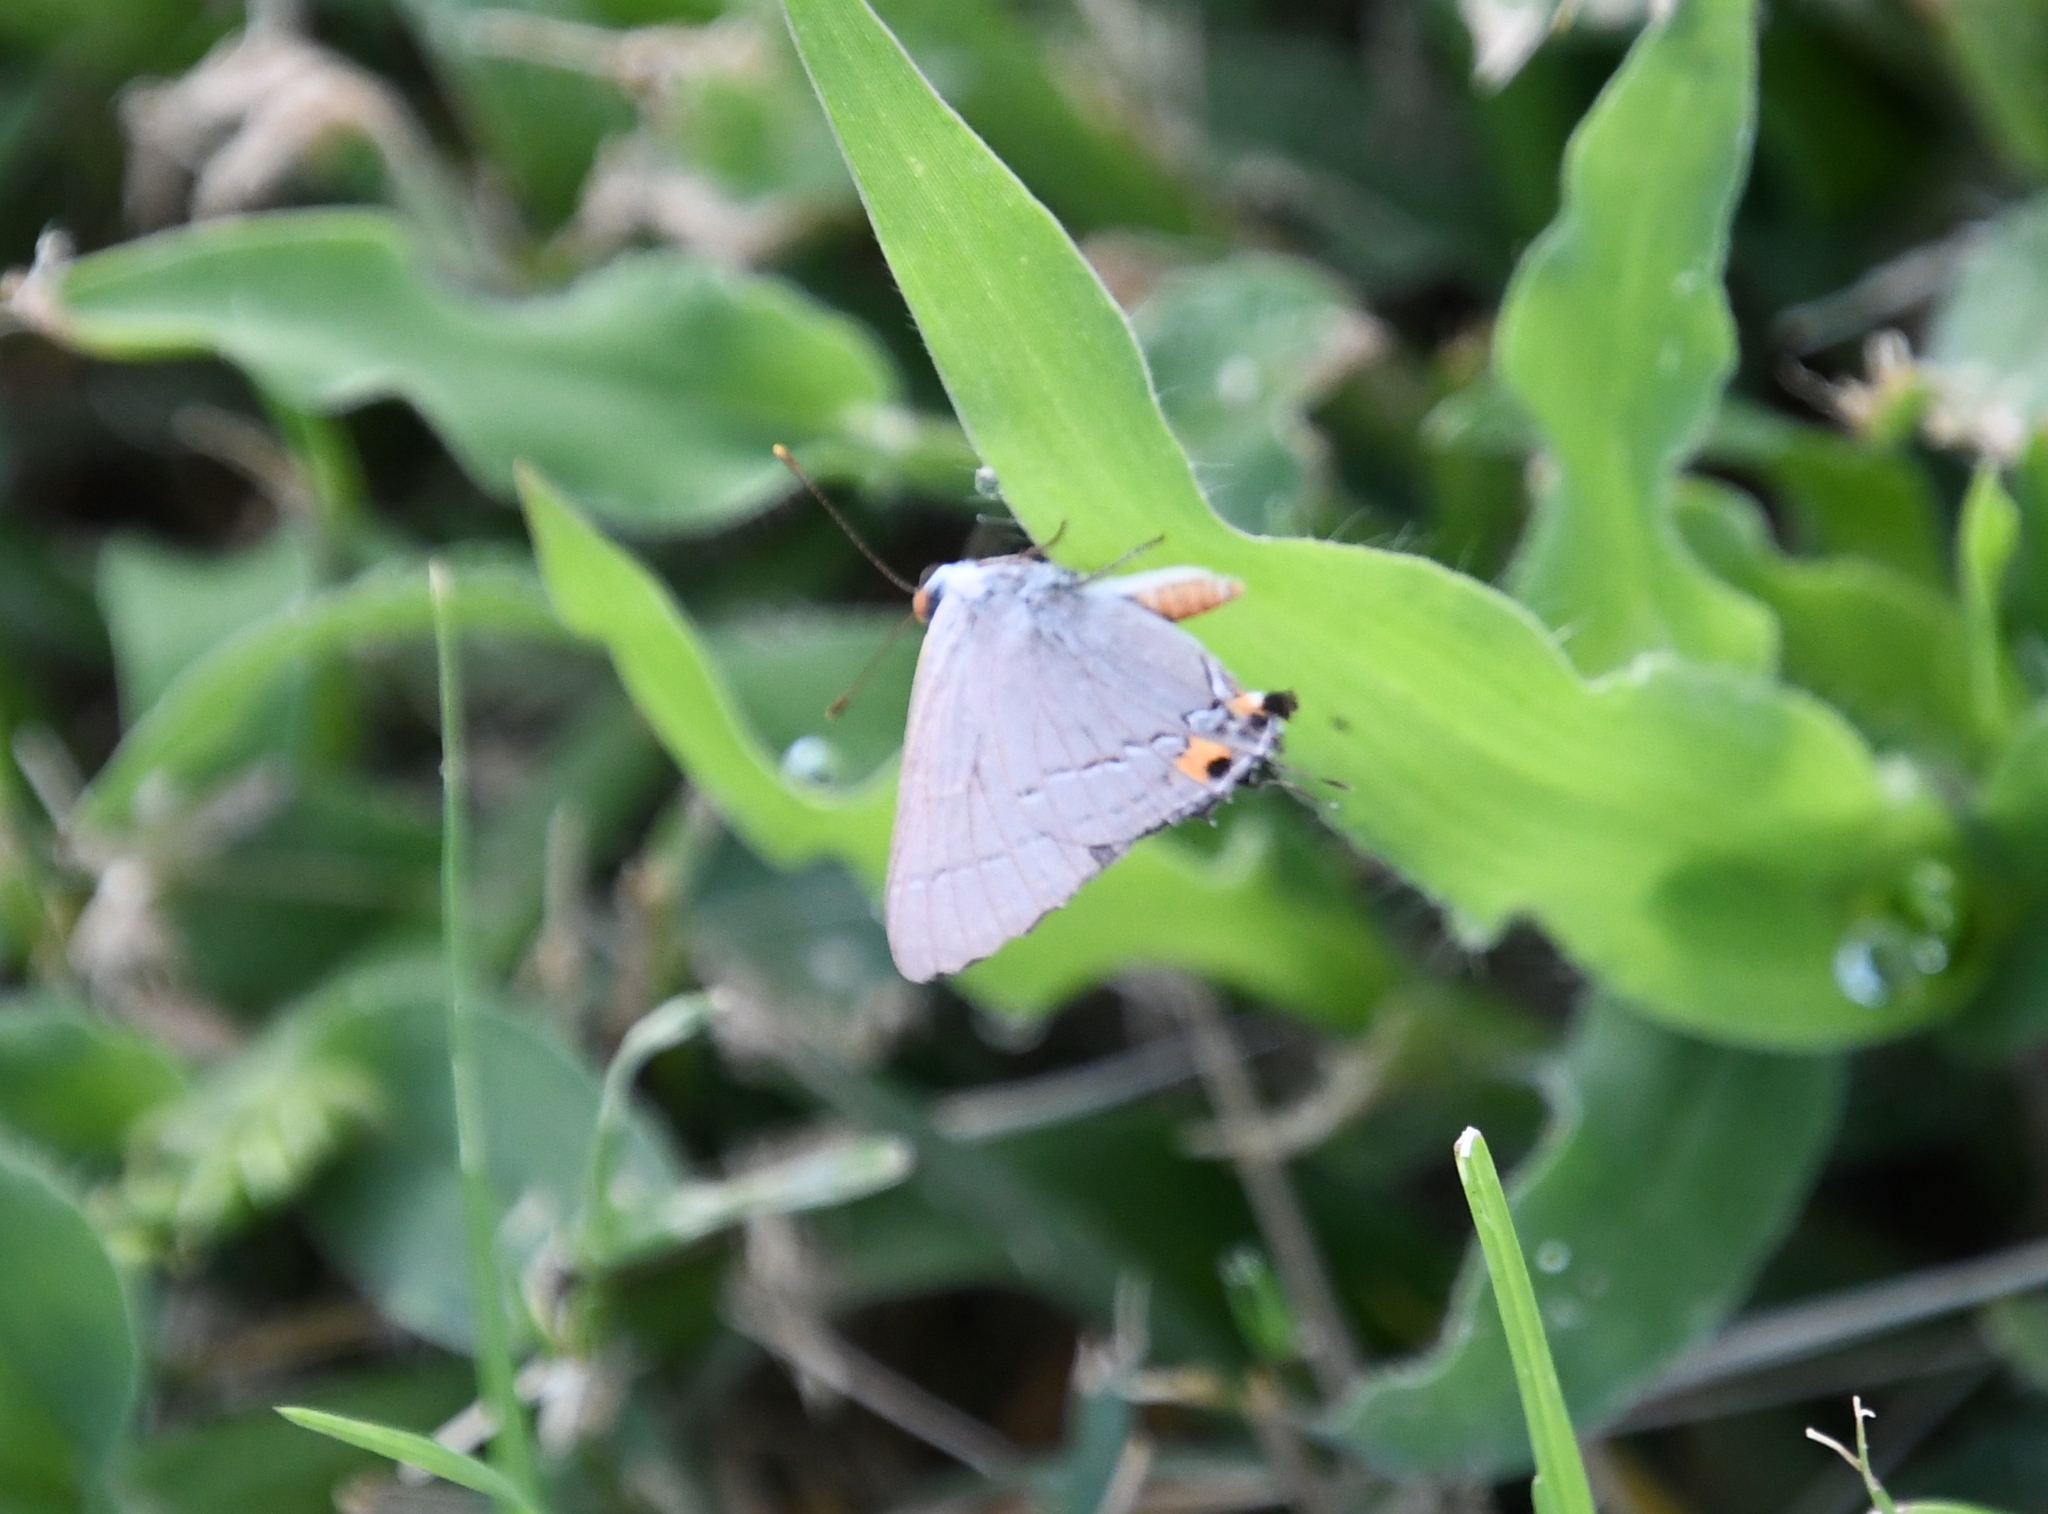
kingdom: Animalia
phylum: Arthropoda
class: Insecta
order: Lepidoptera
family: Lycaenidae
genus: Strymon
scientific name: Strymon melinus
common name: Gray hairstreak
